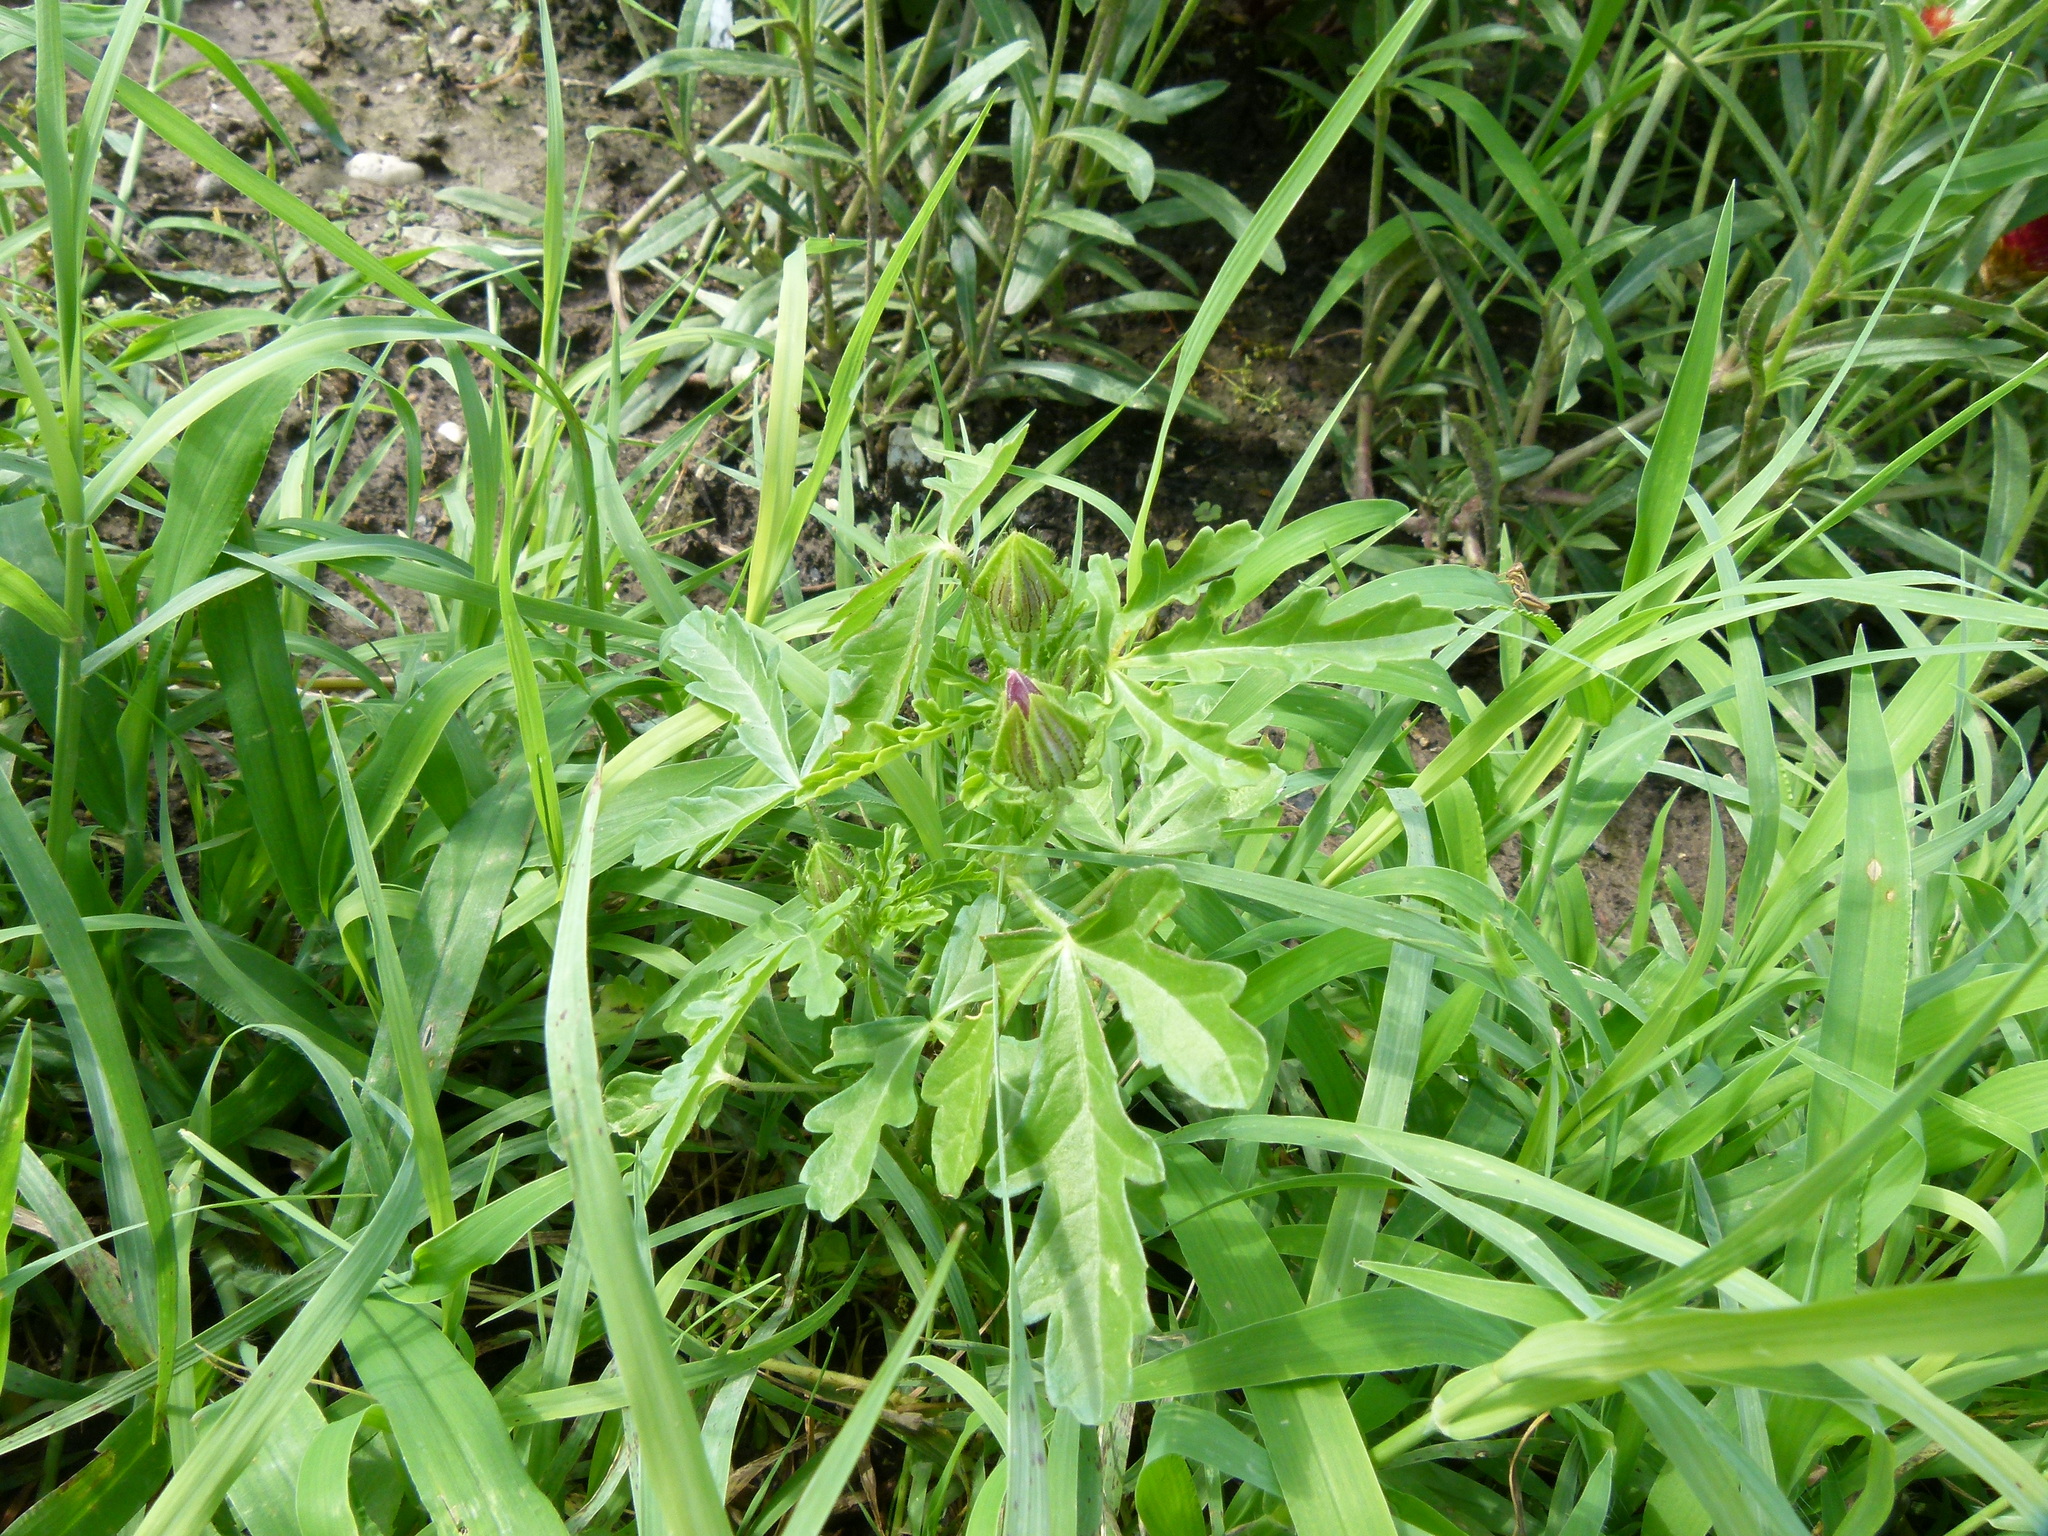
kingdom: Plantae
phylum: Tracheophyta
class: Magnoliopsida
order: Malvales
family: Malvaceae
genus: Hibiscus
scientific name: Hibiscus trionum
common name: Bladder ketmia
